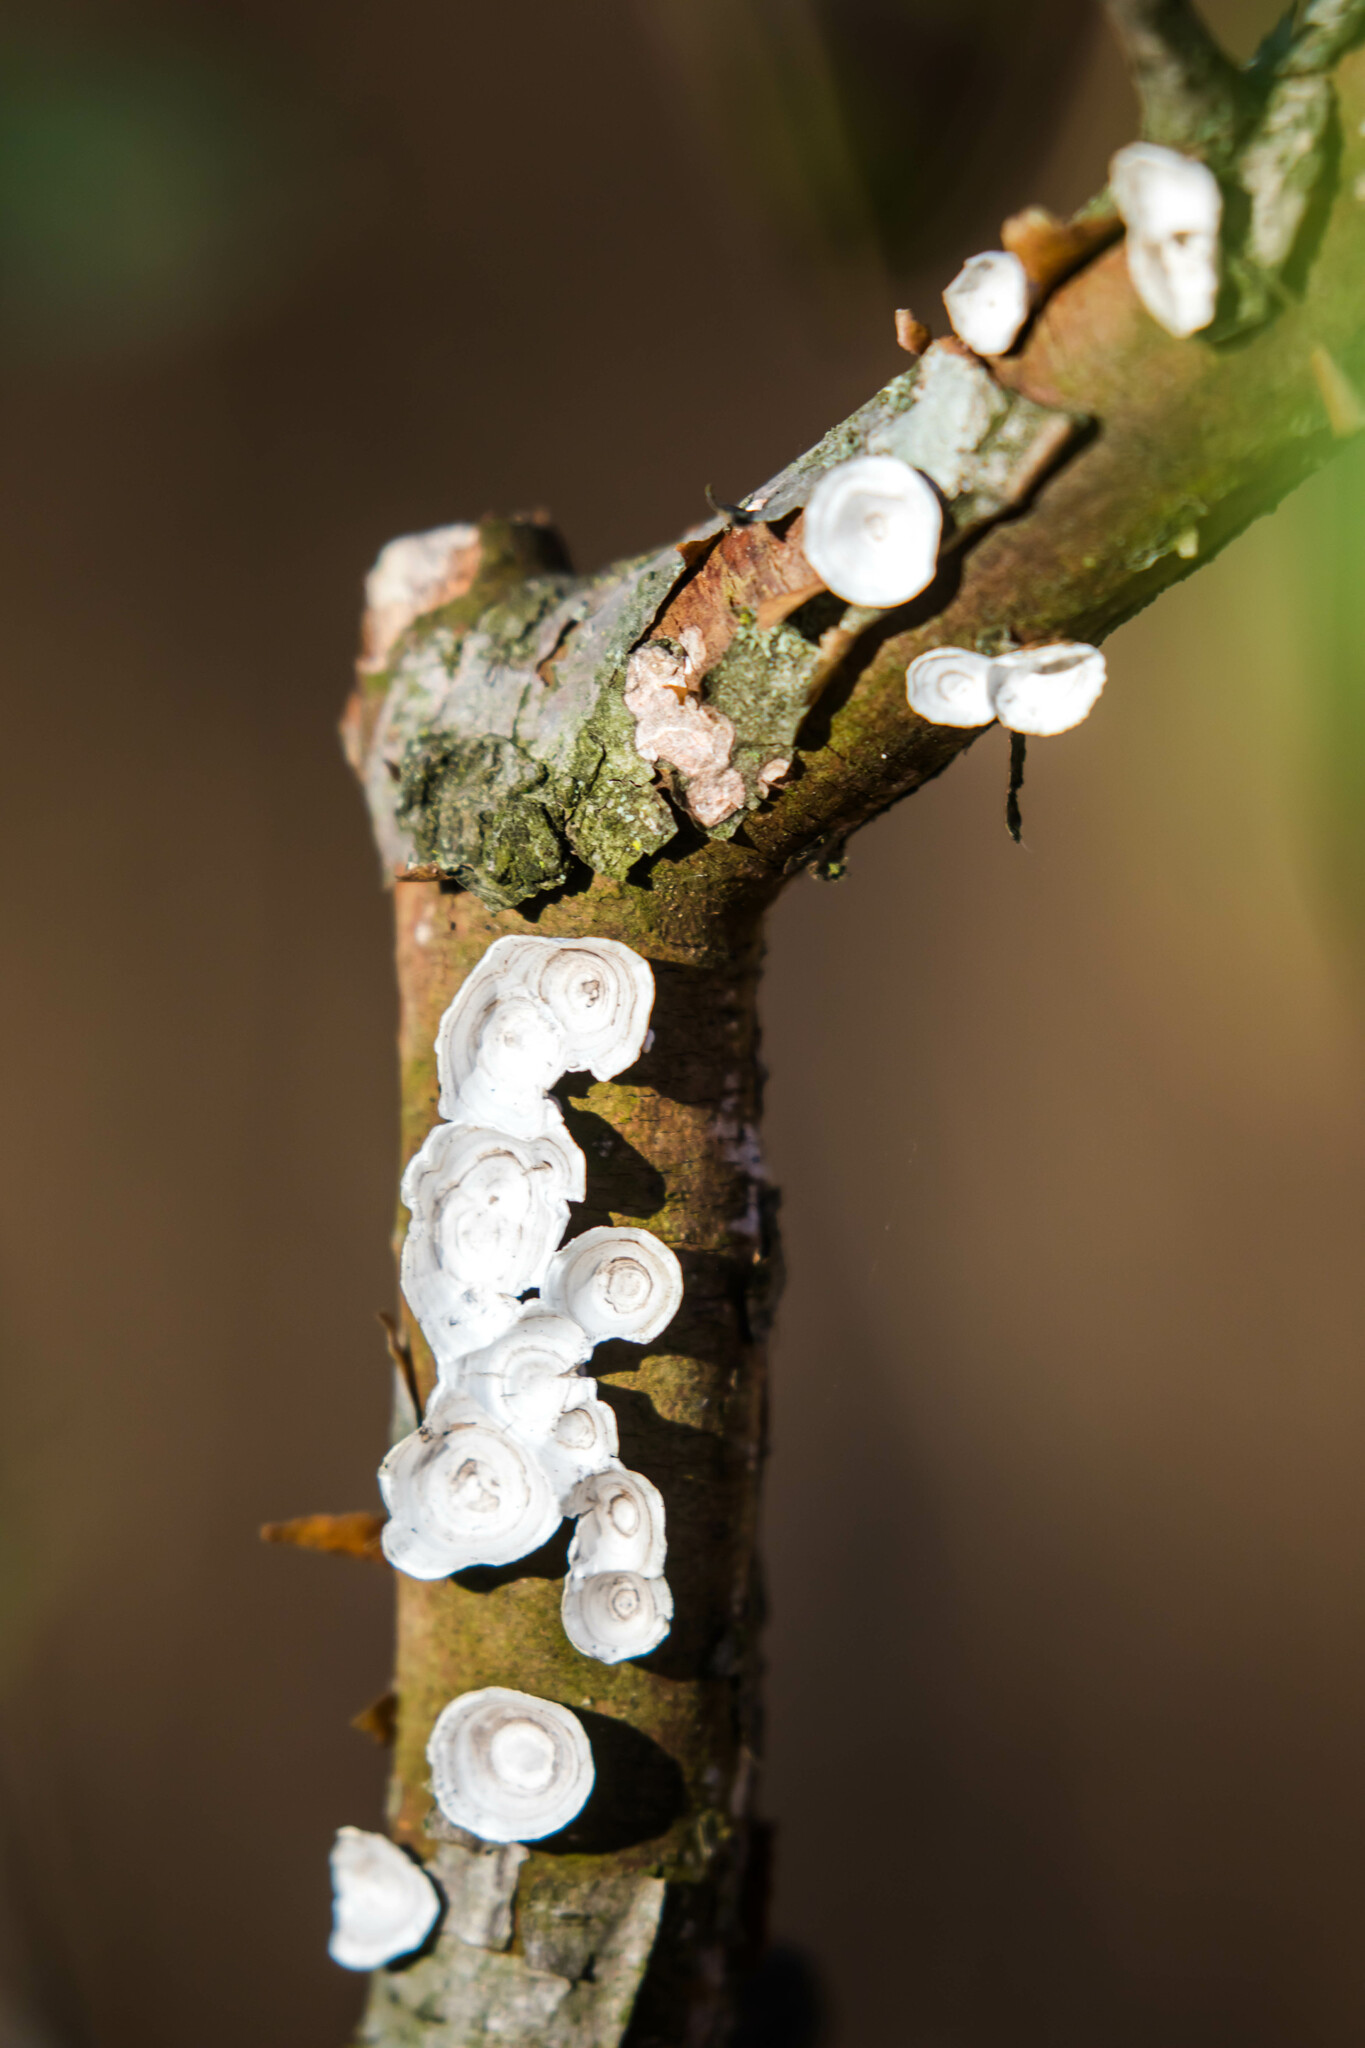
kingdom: Fungi
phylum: Basidiomycota
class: Agaricomycetes
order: Polyporales
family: Polyporaceae
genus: Poronidulus
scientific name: Poronidulus conchifer
